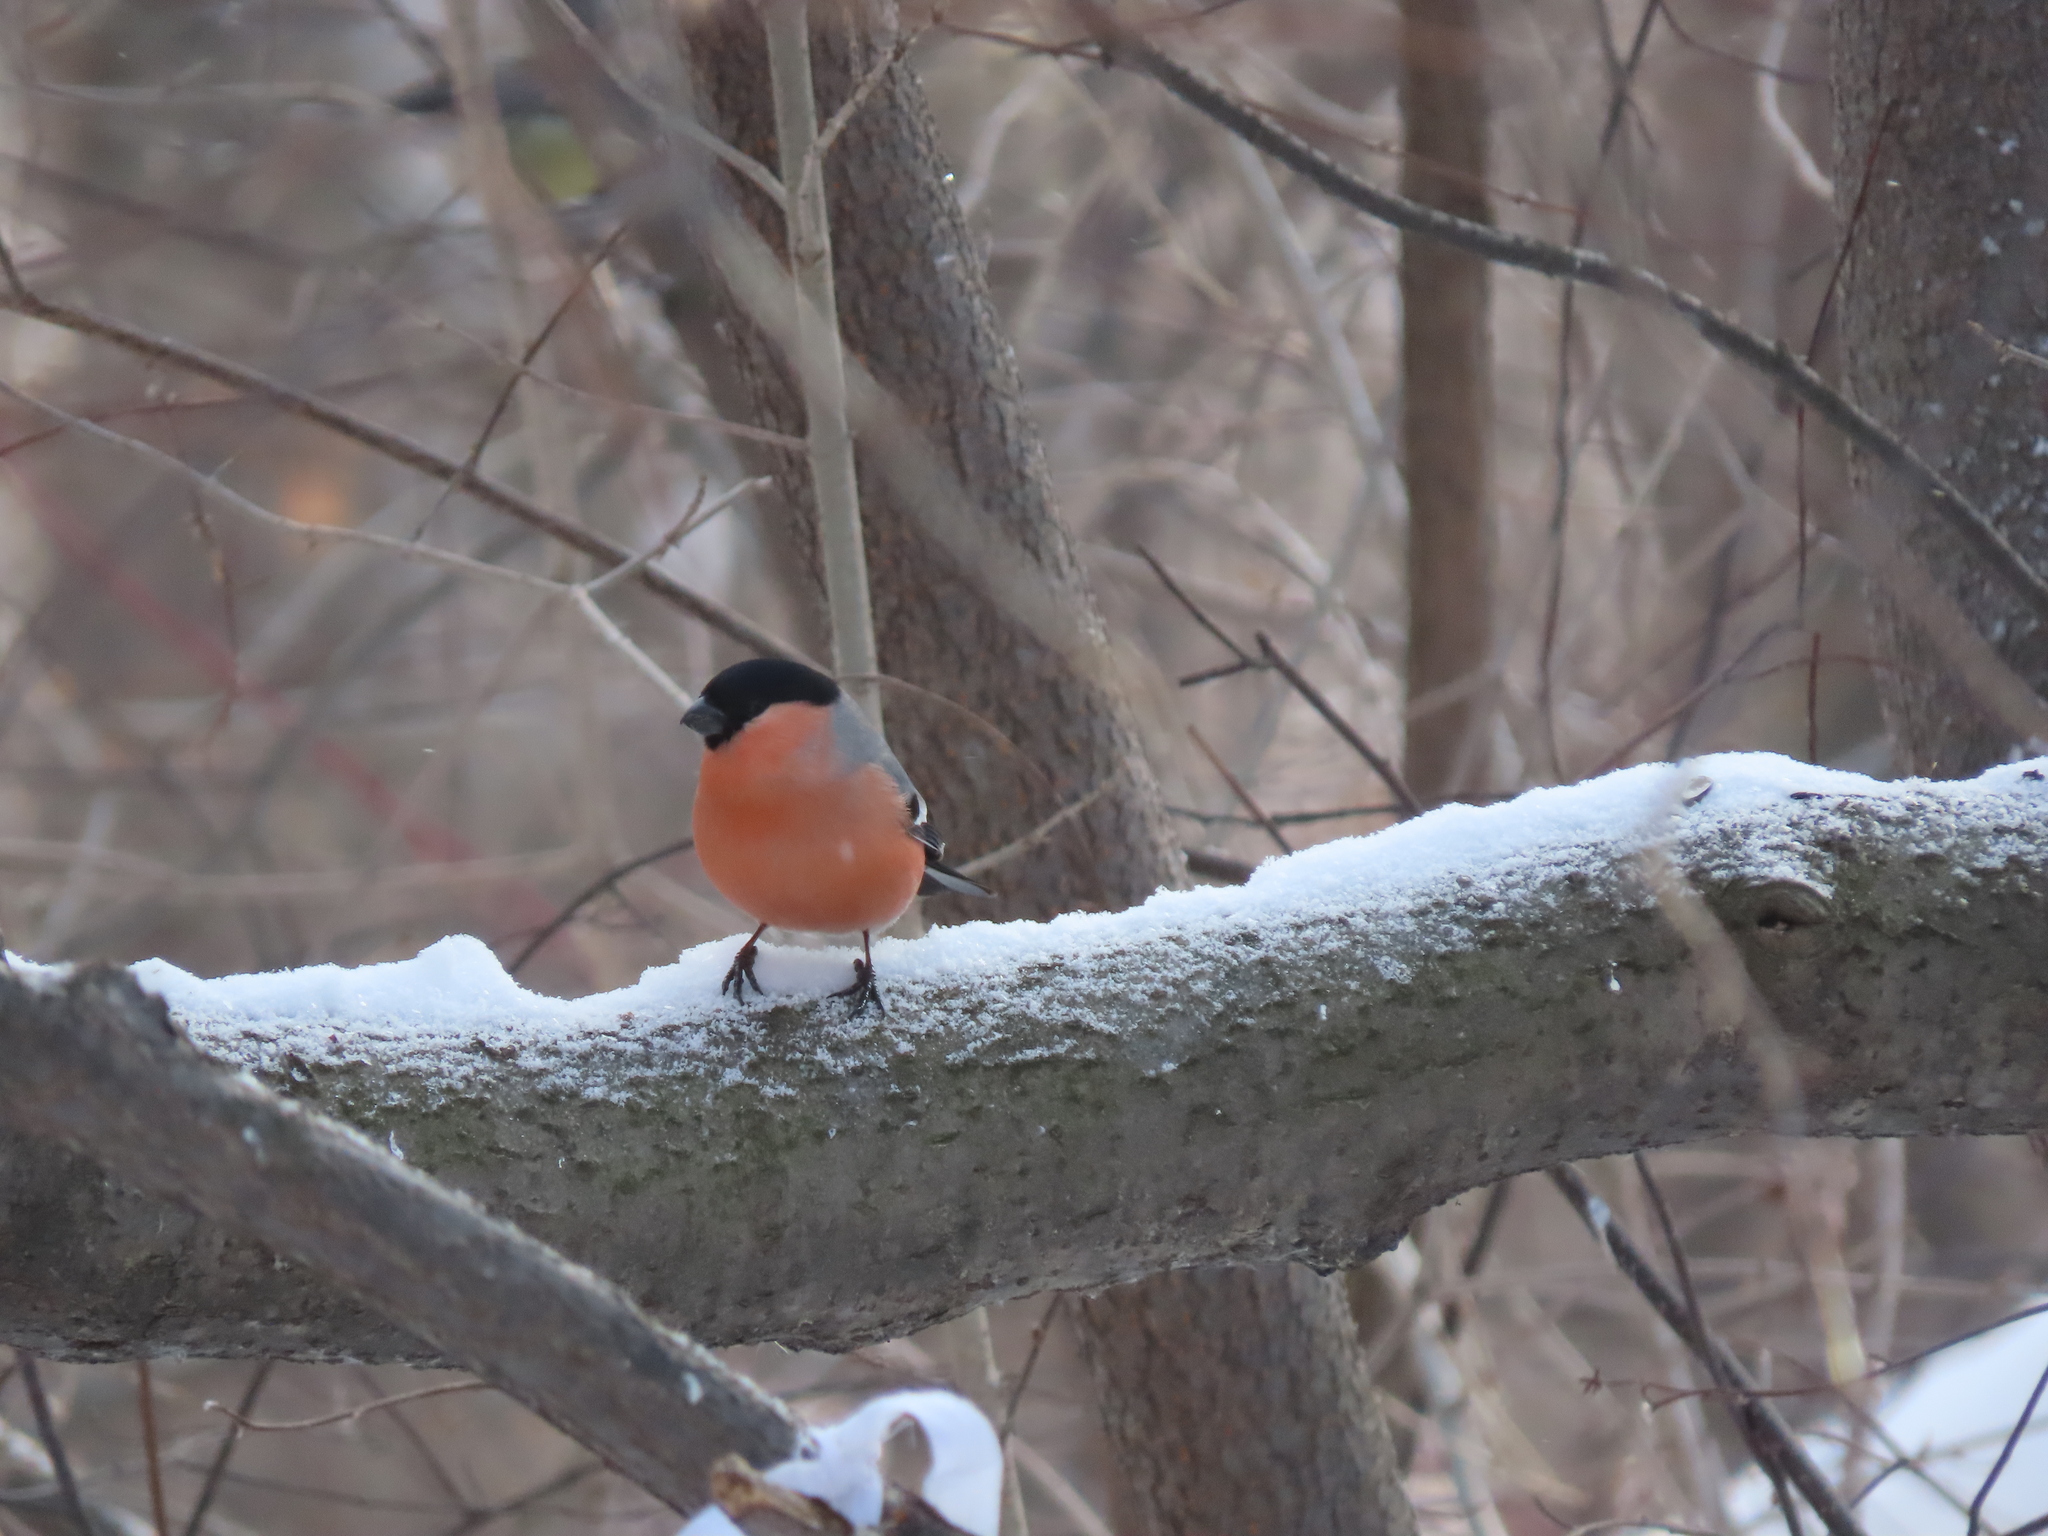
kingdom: Animalia
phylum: Chordata
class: Aves
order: Passeriformes
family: Fringillidae
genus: Pyrrhula
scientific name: Pyrrhula pyrrhula
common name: Eurasian bullfinch
